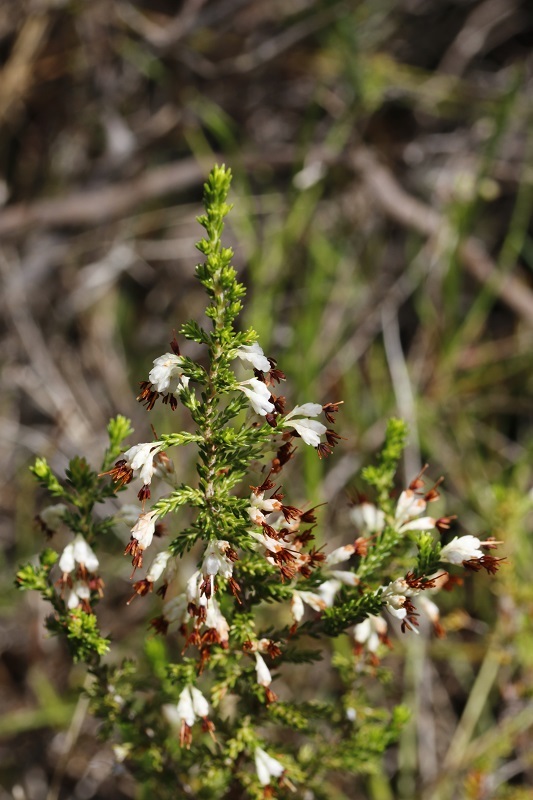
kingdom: Plantae
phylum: Tracheophyta
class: Magnoliopsida
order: Ericales
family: Ericaceae
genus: Erica
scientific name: Erica imbricata
